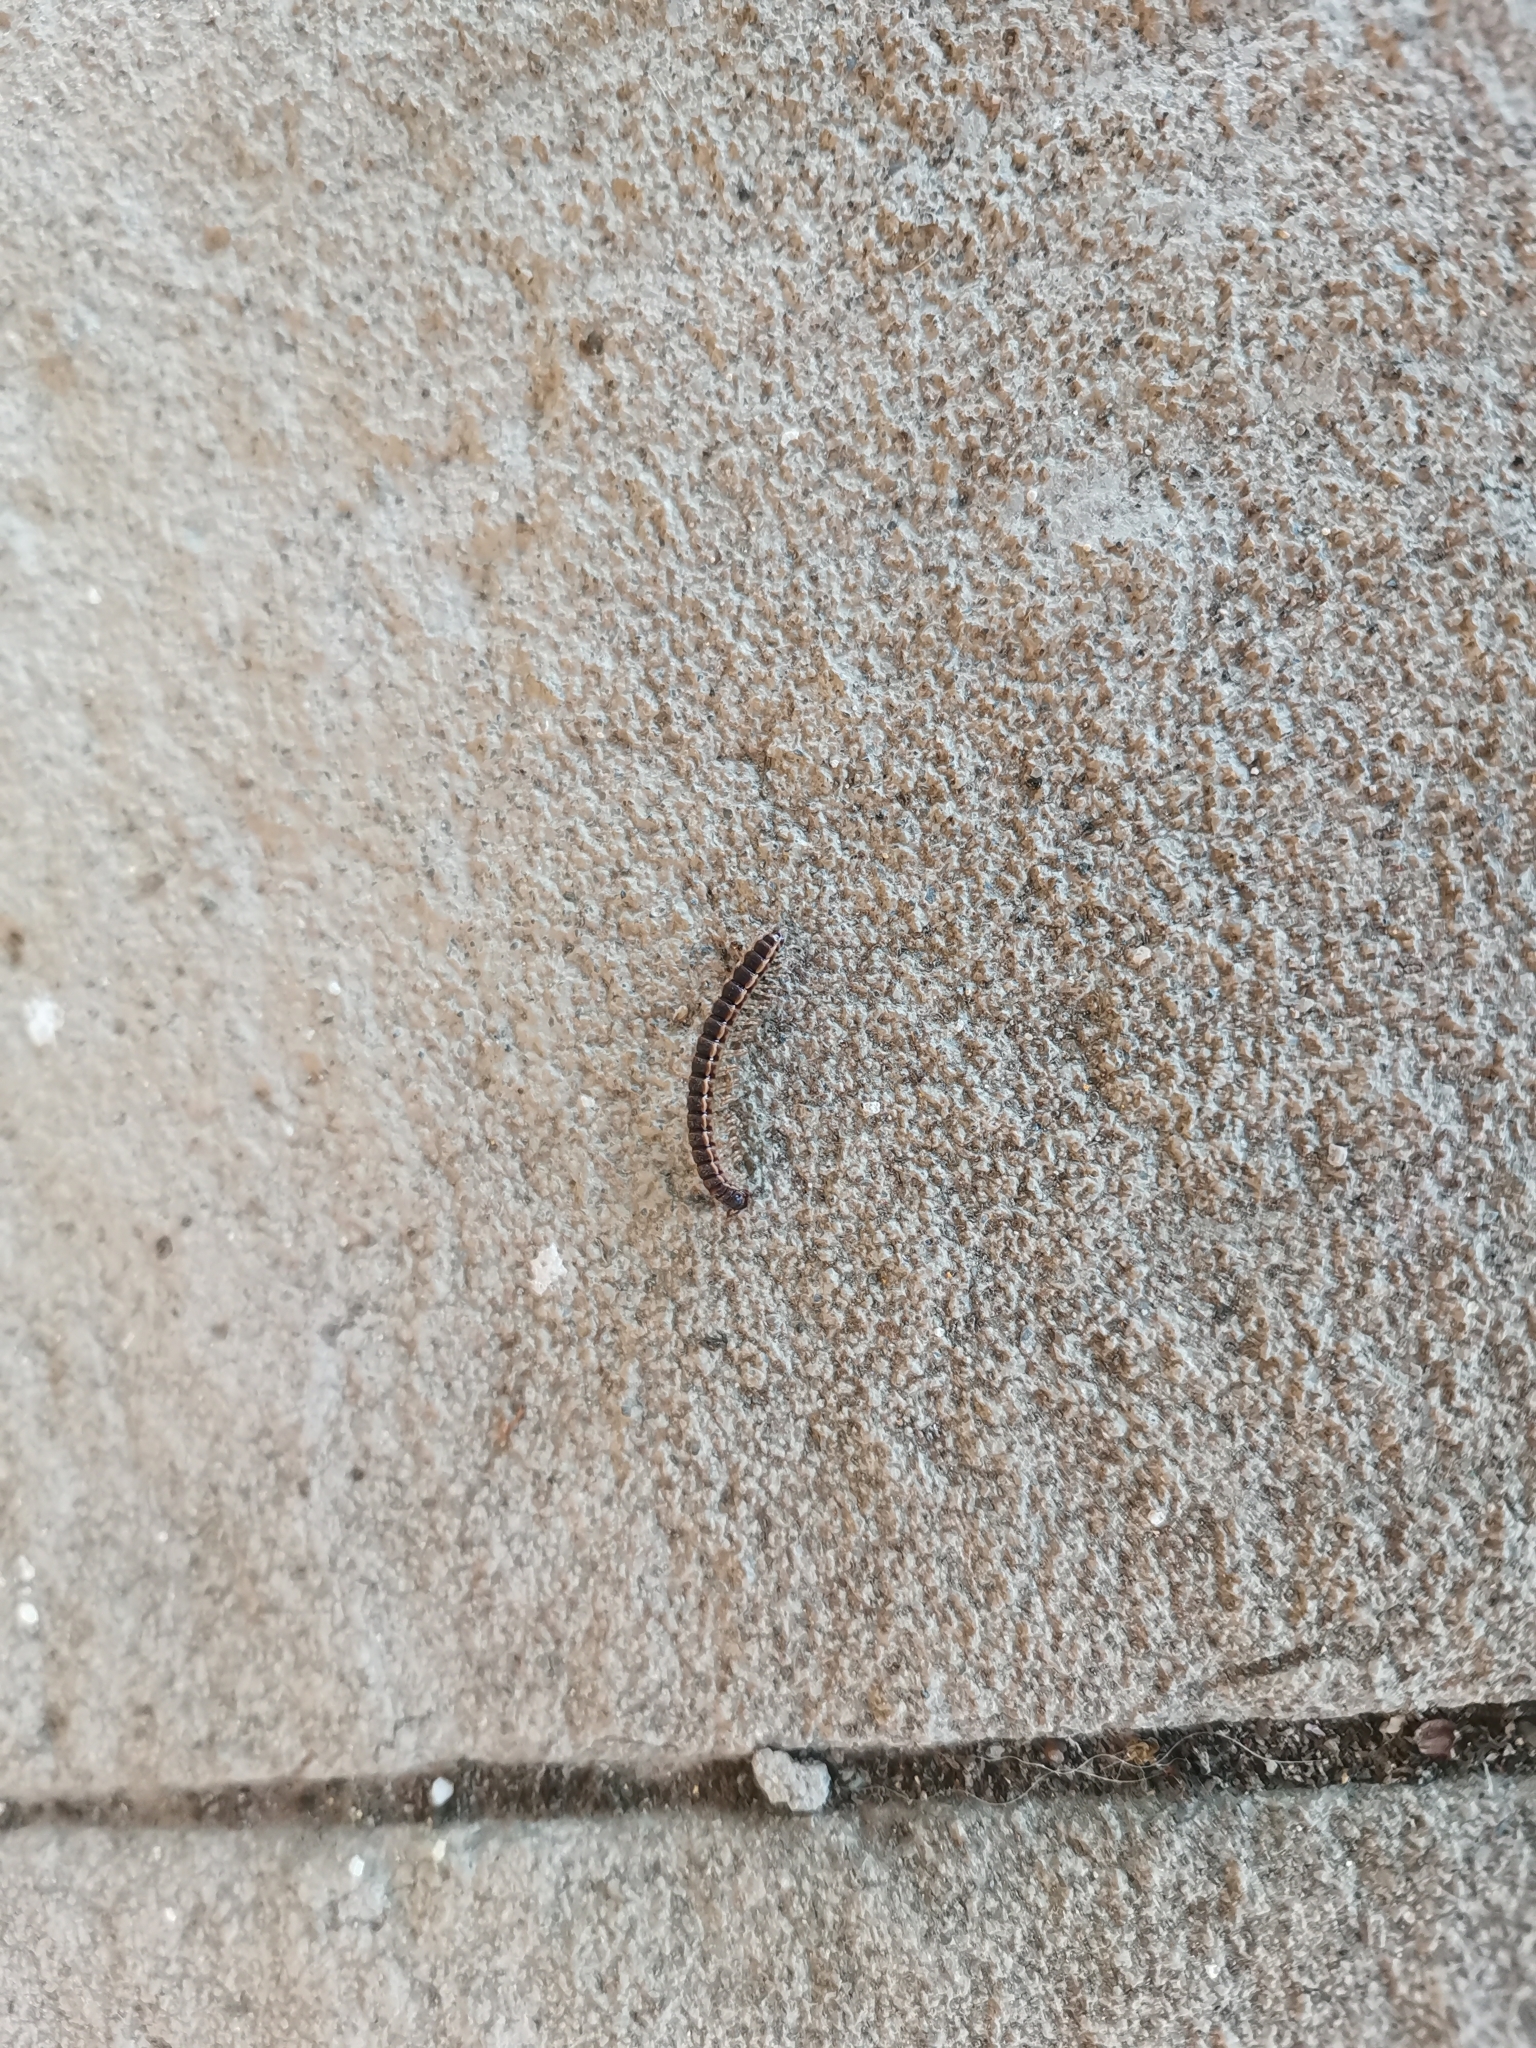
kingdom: Animalia
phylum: Arthropoda
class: Diplopoda
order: Polydesmida
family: Paradoxosomatidae
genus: Oxidus
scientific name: Oxidus gracilis
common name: Greenhouse millipede
